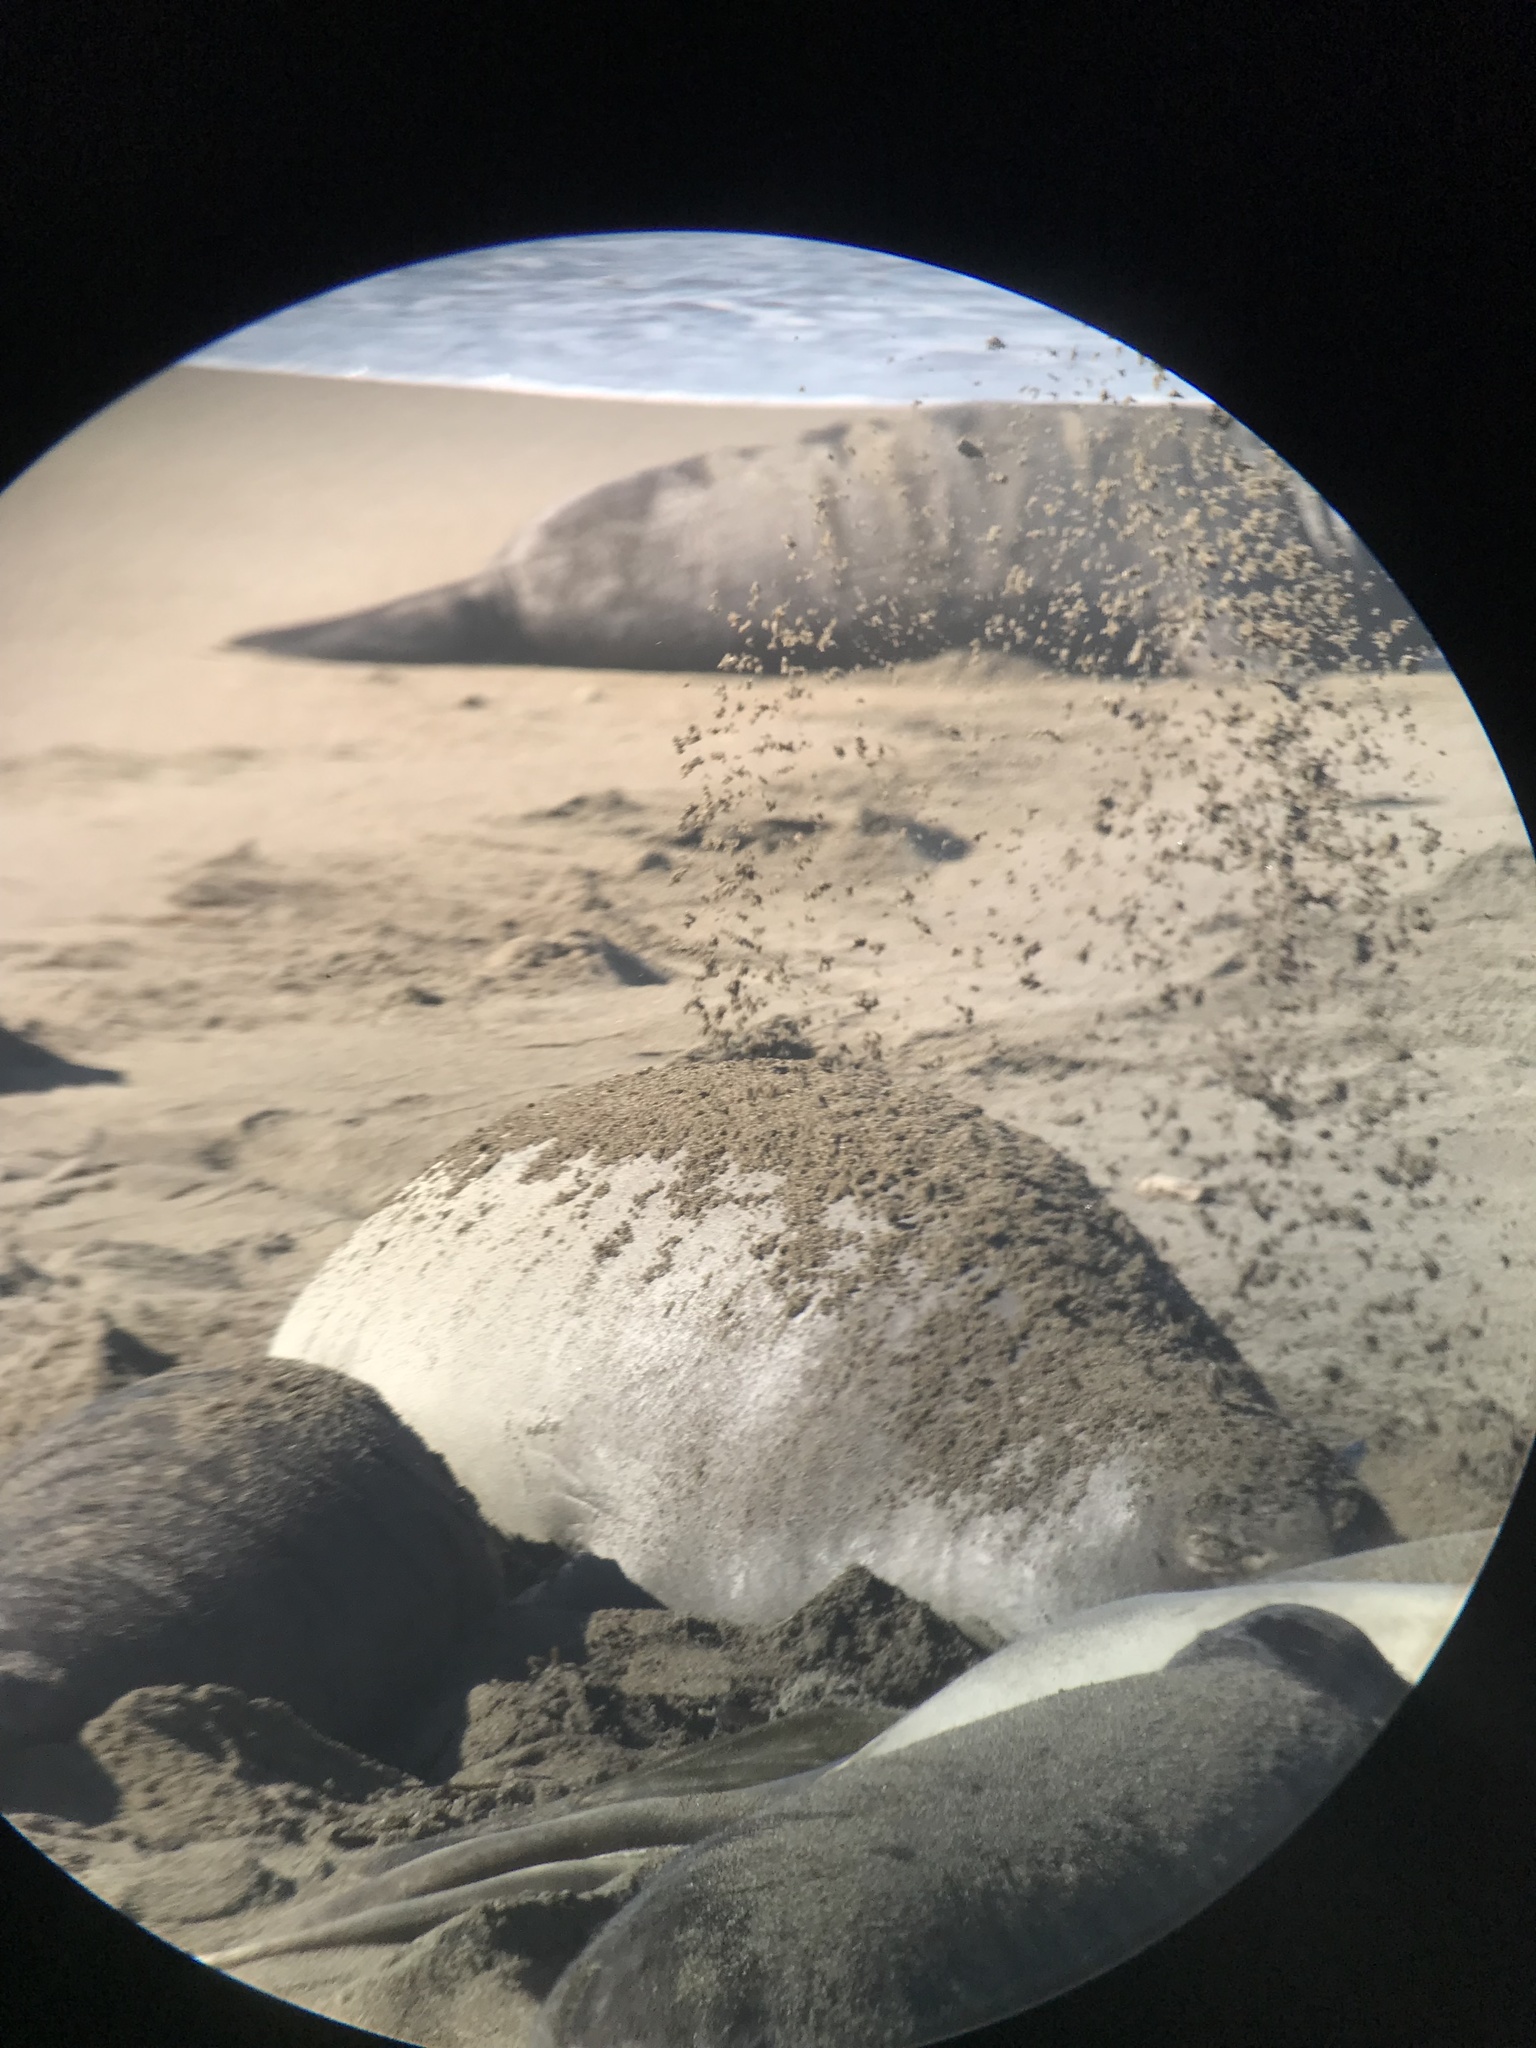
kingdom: Animalia
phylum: Chordata
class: Mammalia
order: Carnivora
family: Phocidae
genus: Mirounga
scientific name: Mirounga angustirostris
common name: Northern elephant seal
